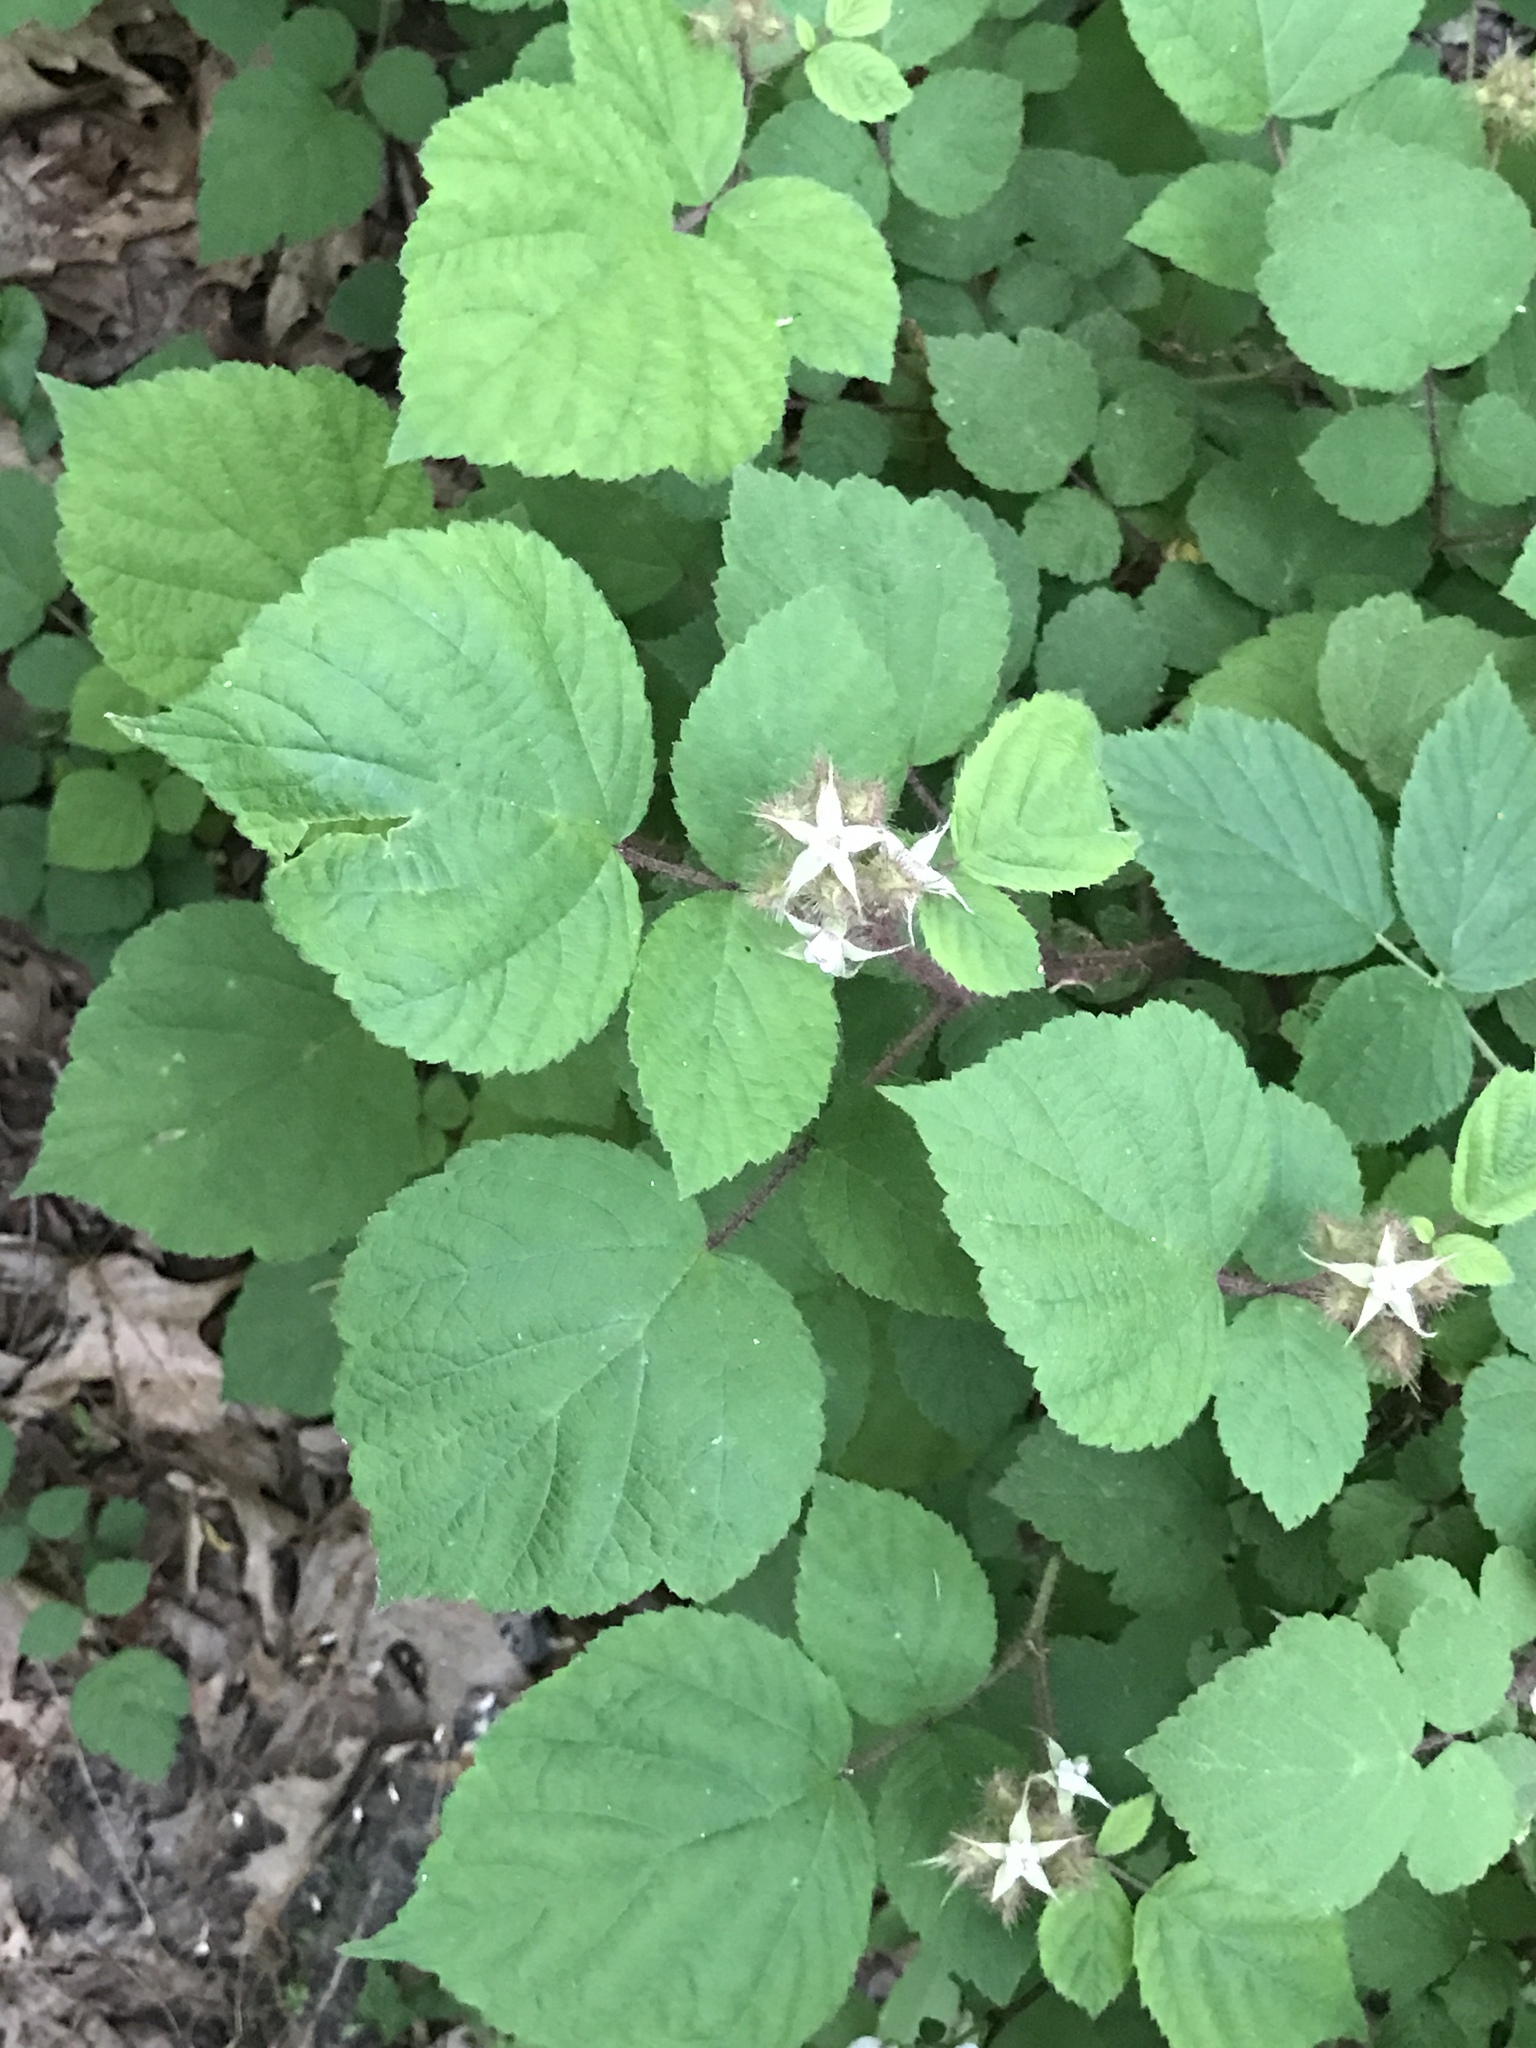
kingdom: Plantae
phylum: Tracheophyta
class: Magnoliopsida
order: Rosales
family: Rosaceae
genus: Rubus
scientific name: Rubus phoenicolasius
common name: Japanese wineberry
